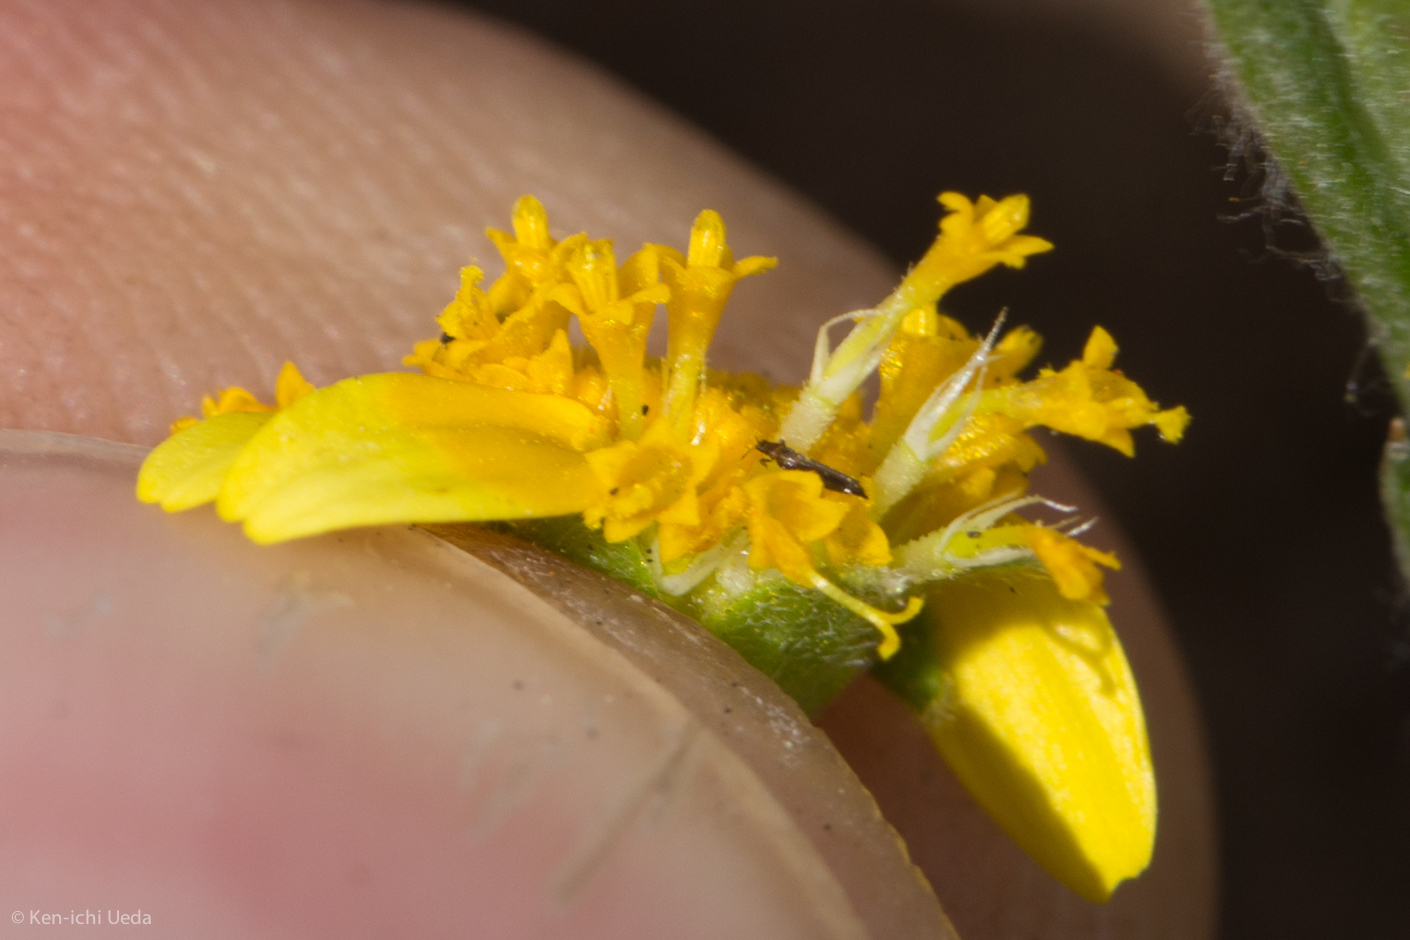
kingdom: Plantae
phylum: Tracheophyta
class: Magnoliopsida
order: Asterales
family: Asteraceae
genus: Lasthenia
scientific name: Lasthenia californica
